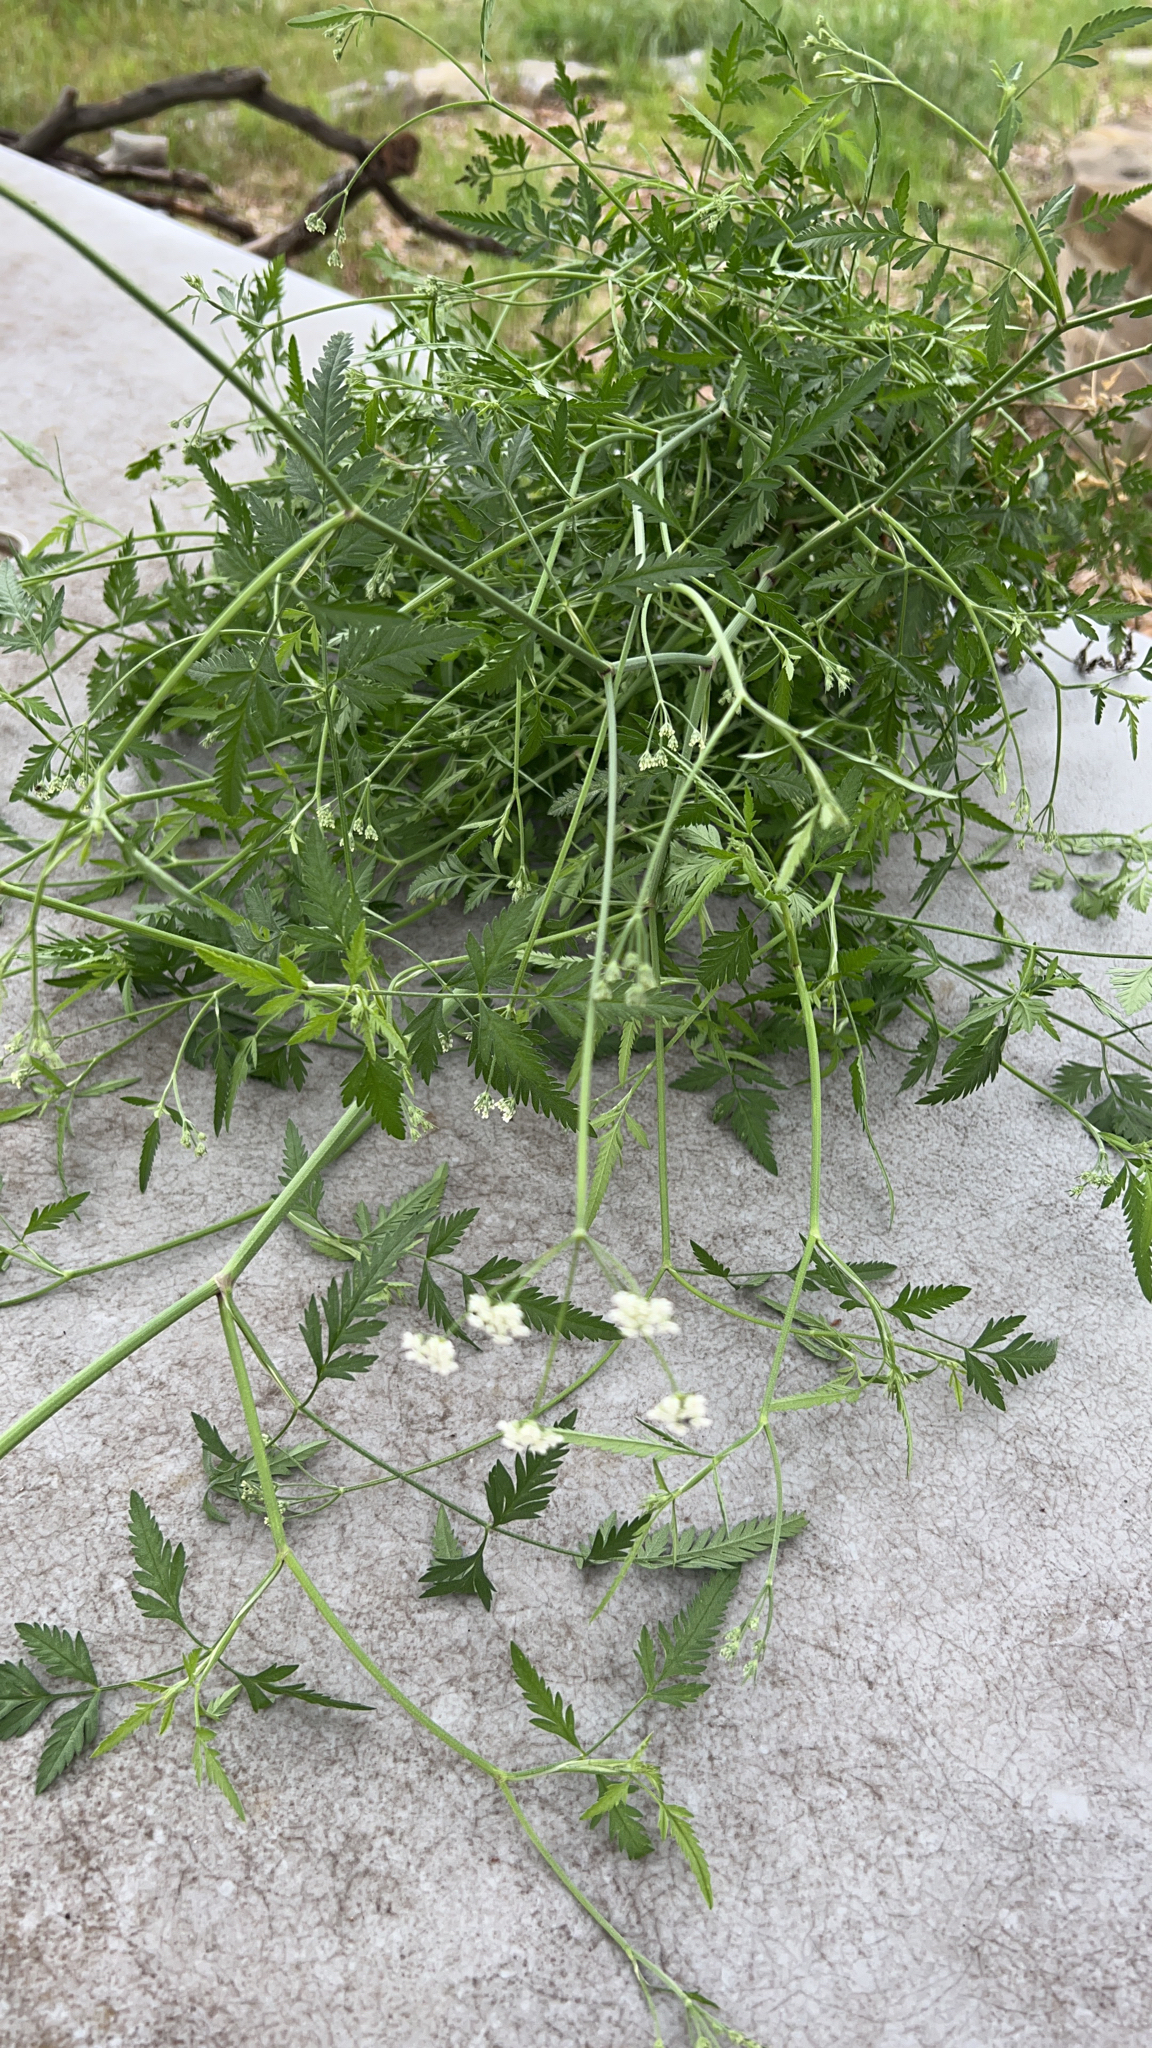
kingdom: Plantae
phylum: Tracheophyta
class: Magnoliopsida
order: Apiales
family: Apiaceae
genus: Torilis
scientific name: Torilis arvensis
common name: Spreading hedge-parsley
